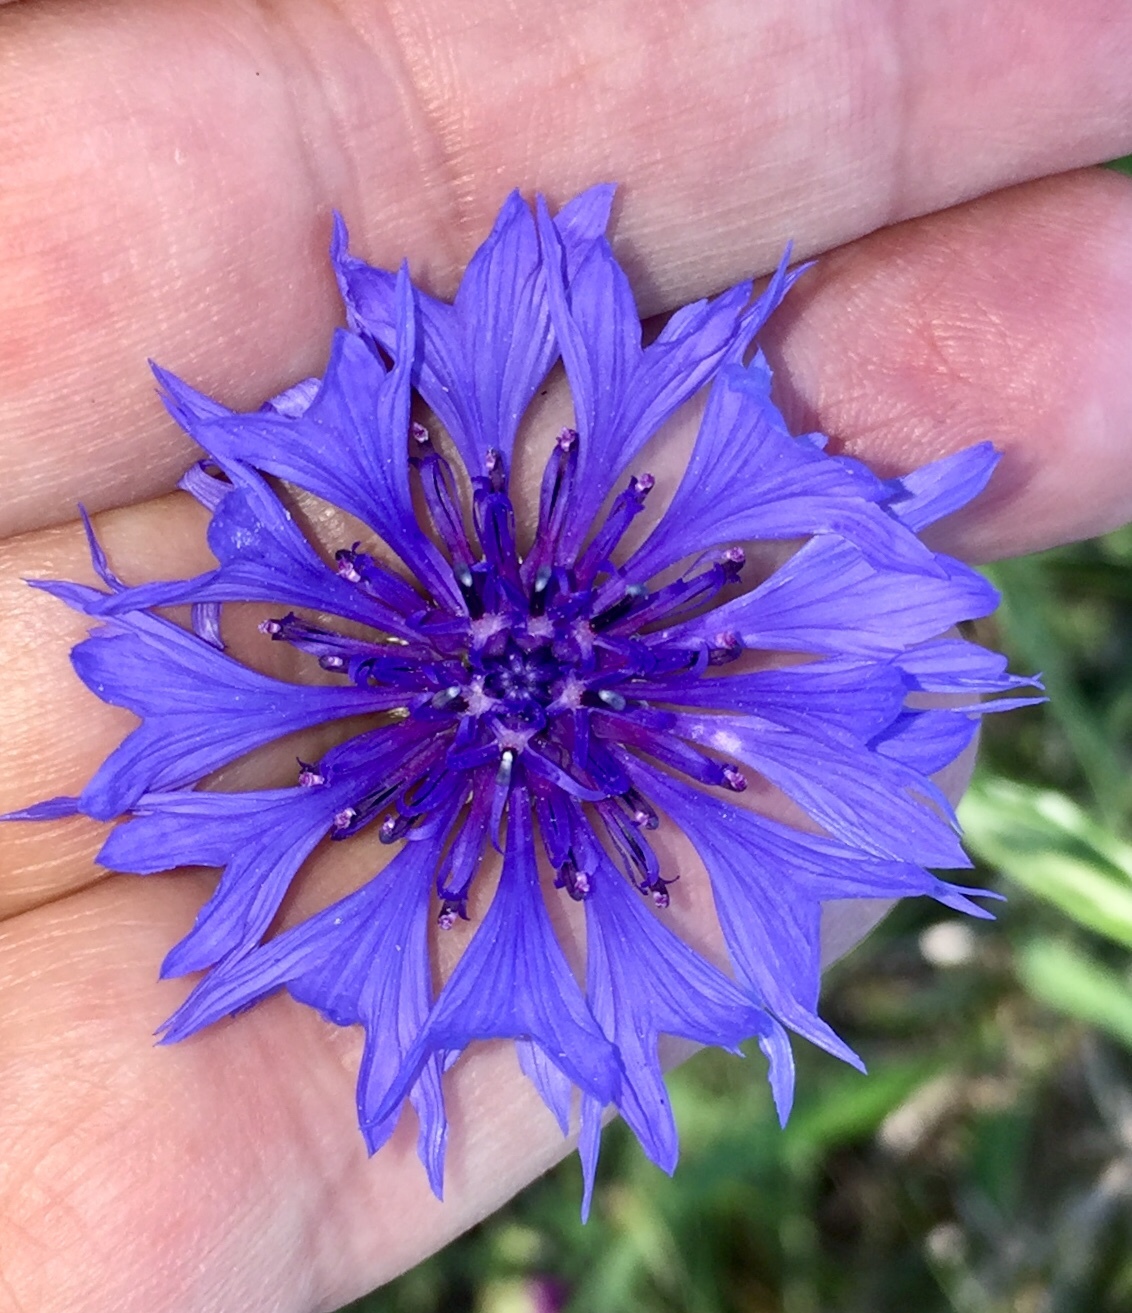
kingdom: Plantae
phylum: Tracheophyta
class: Magnoliopsida
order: Asterales
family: Asteraceae
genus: Centaurea
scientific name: Centaurea cyanus
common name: Cornflower
